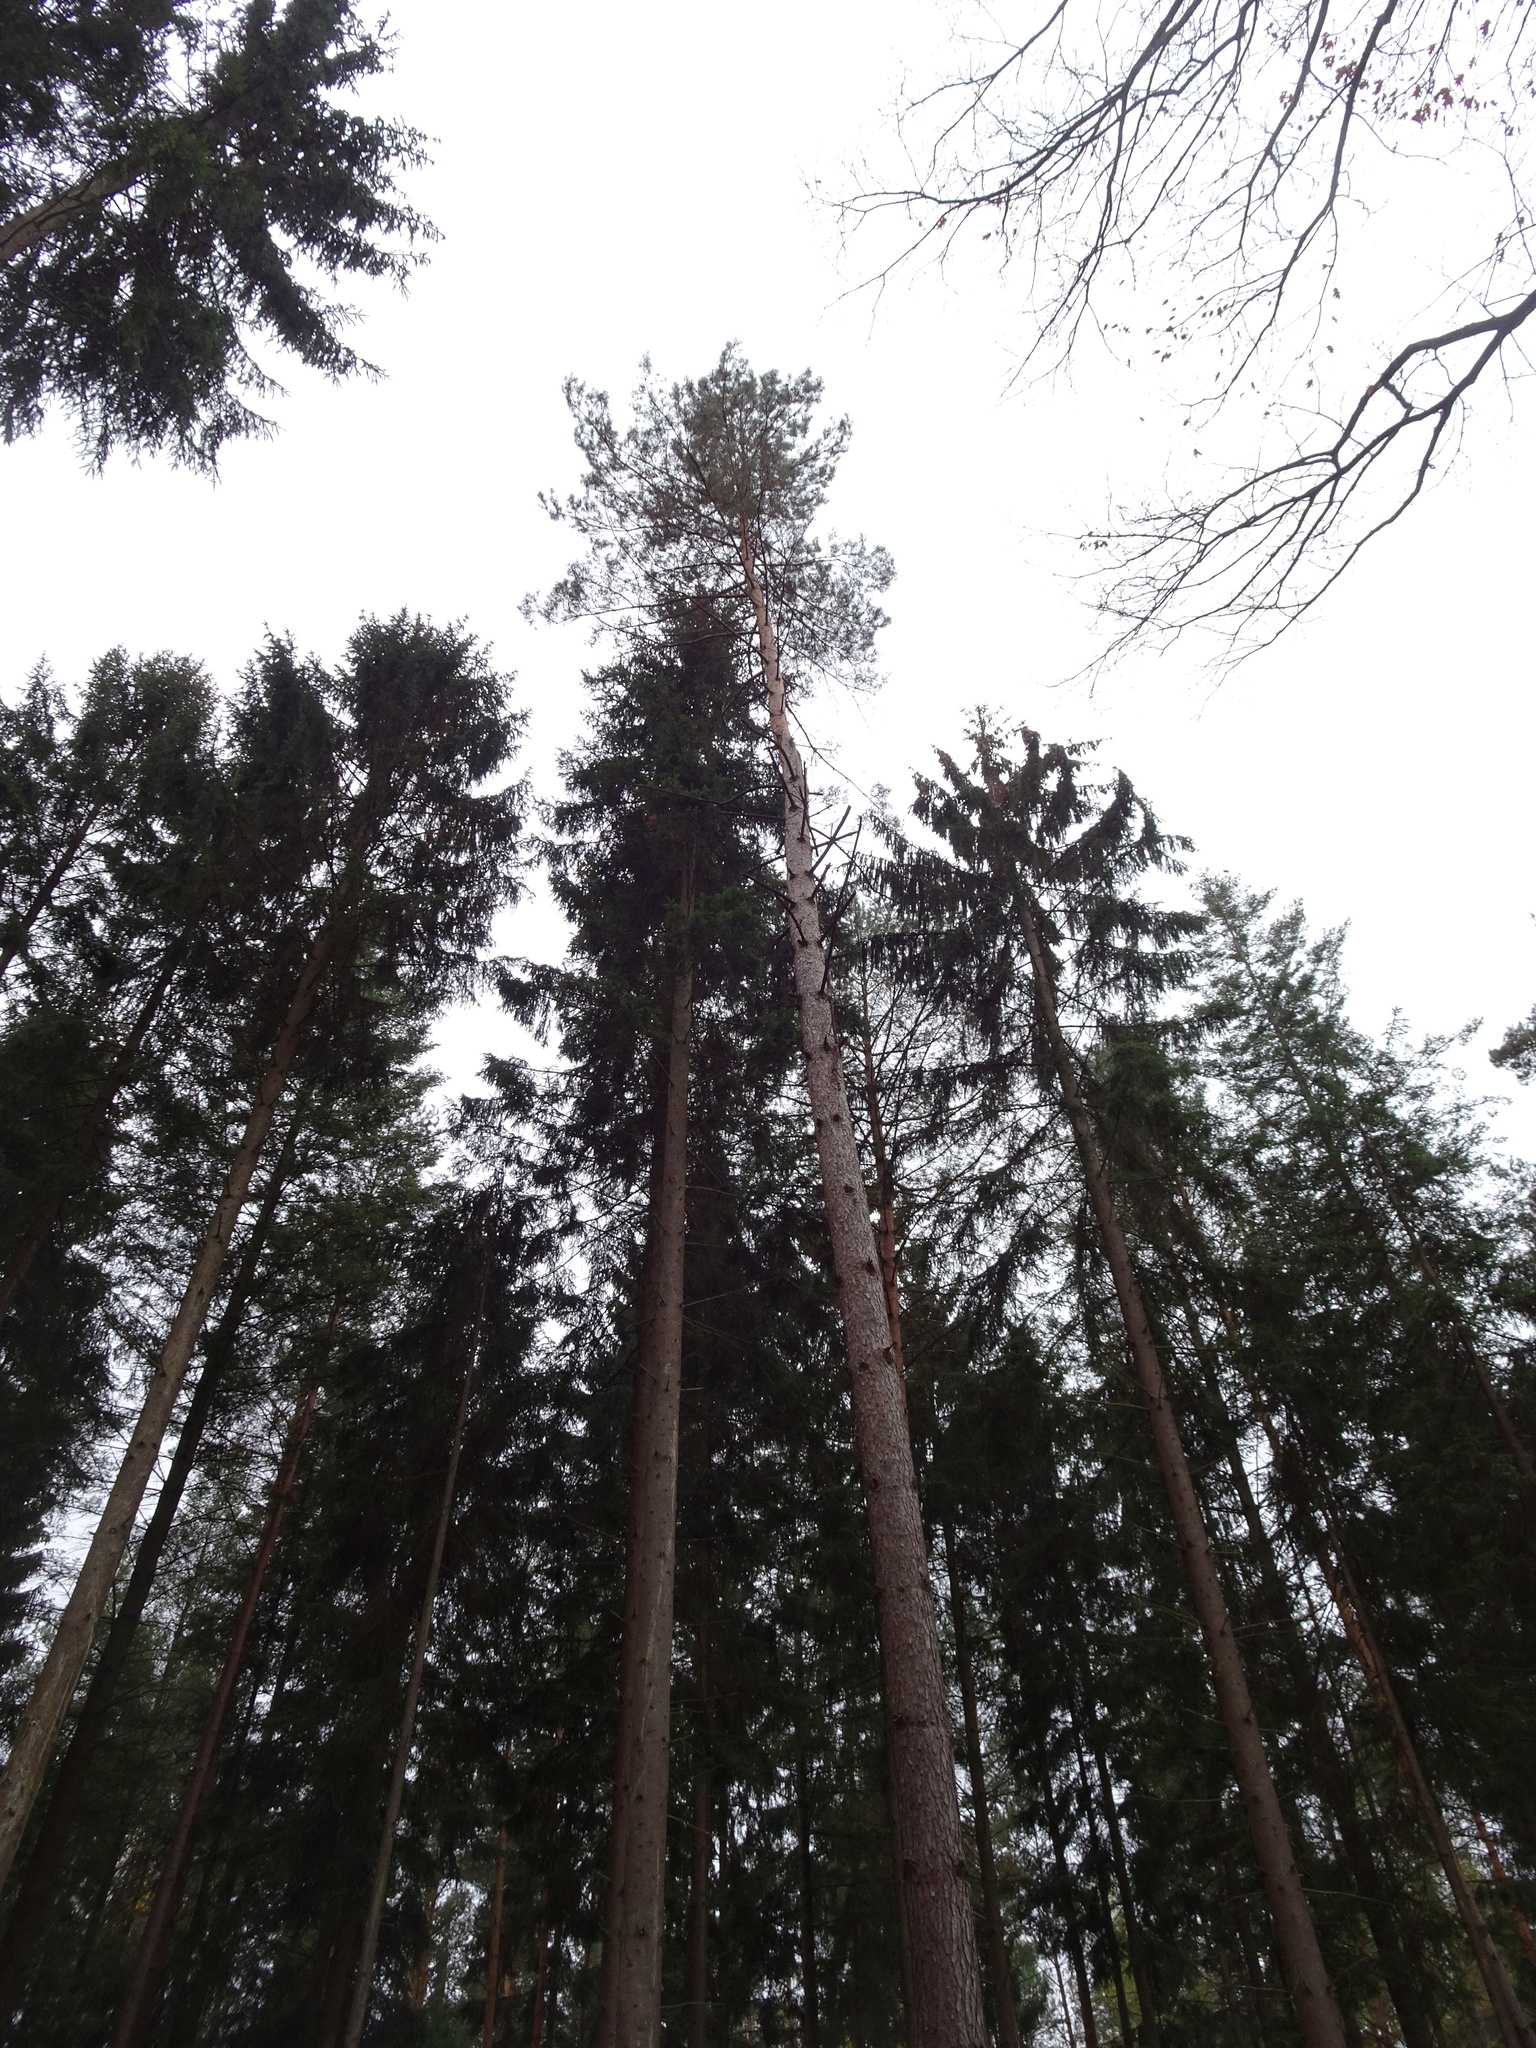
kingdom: Plantae
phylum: Tracheophyta
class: Pinopsida
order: Pinales
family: Pinaceae
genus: Pinus
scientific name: Pinus sylvestris
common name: Scots pine
